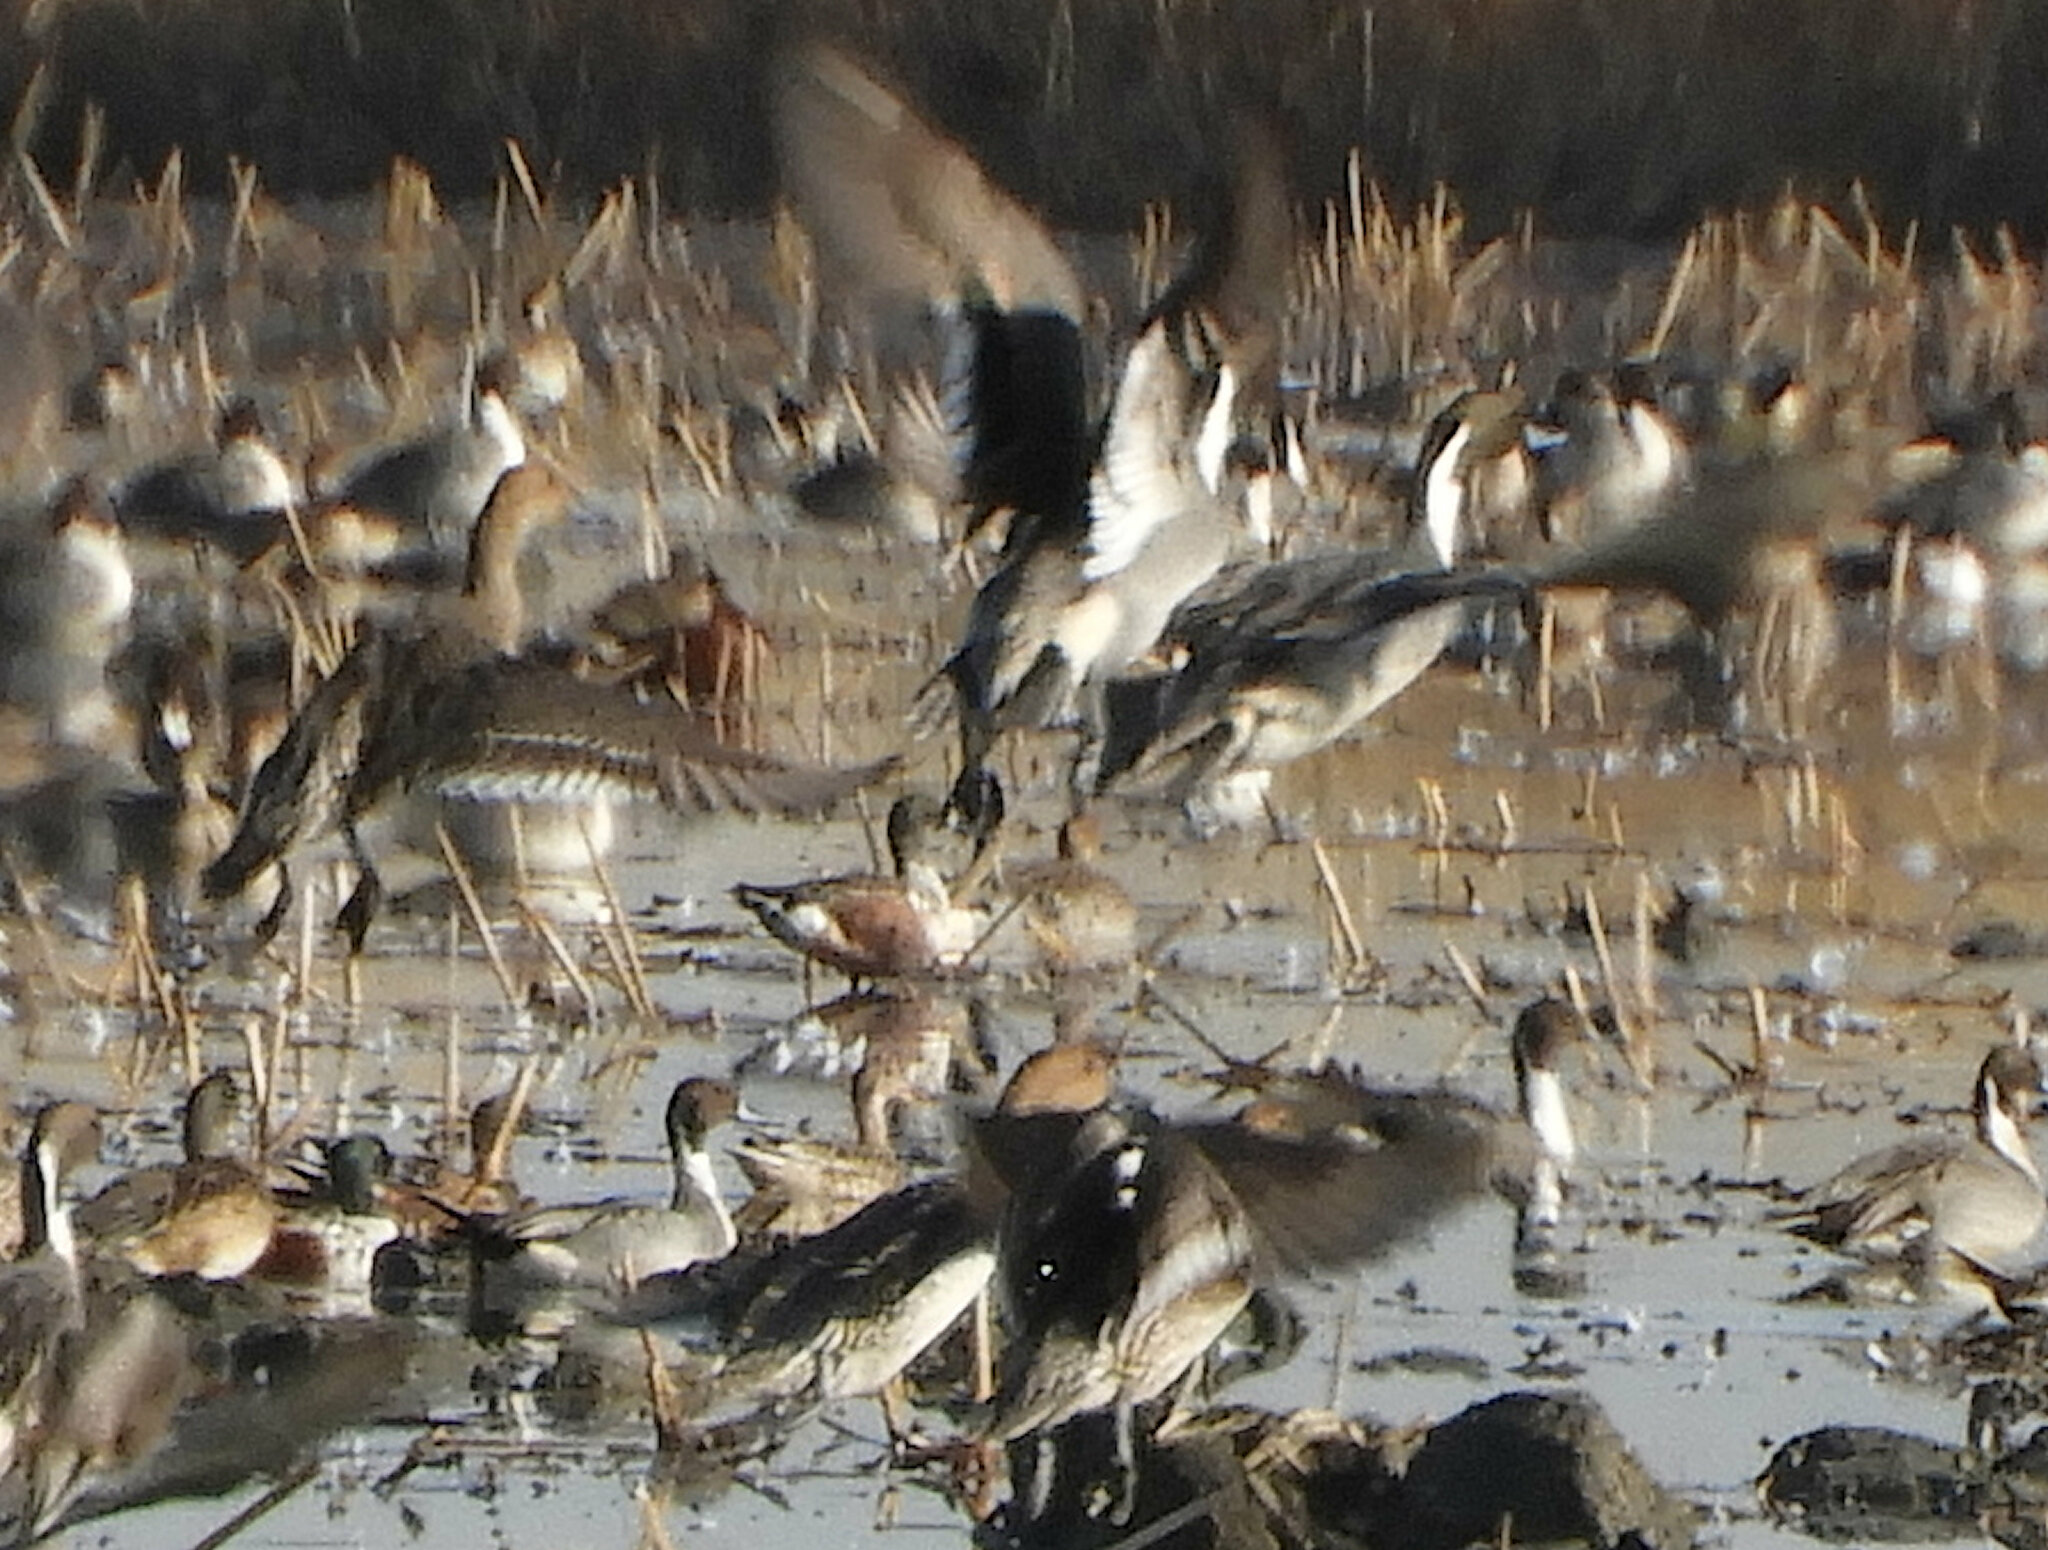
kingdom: Animalia
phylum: Chordata
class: Aves
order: Anseriformes
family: Anatidae
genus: Anas
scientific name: Anas acuta
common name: Northern pintail
